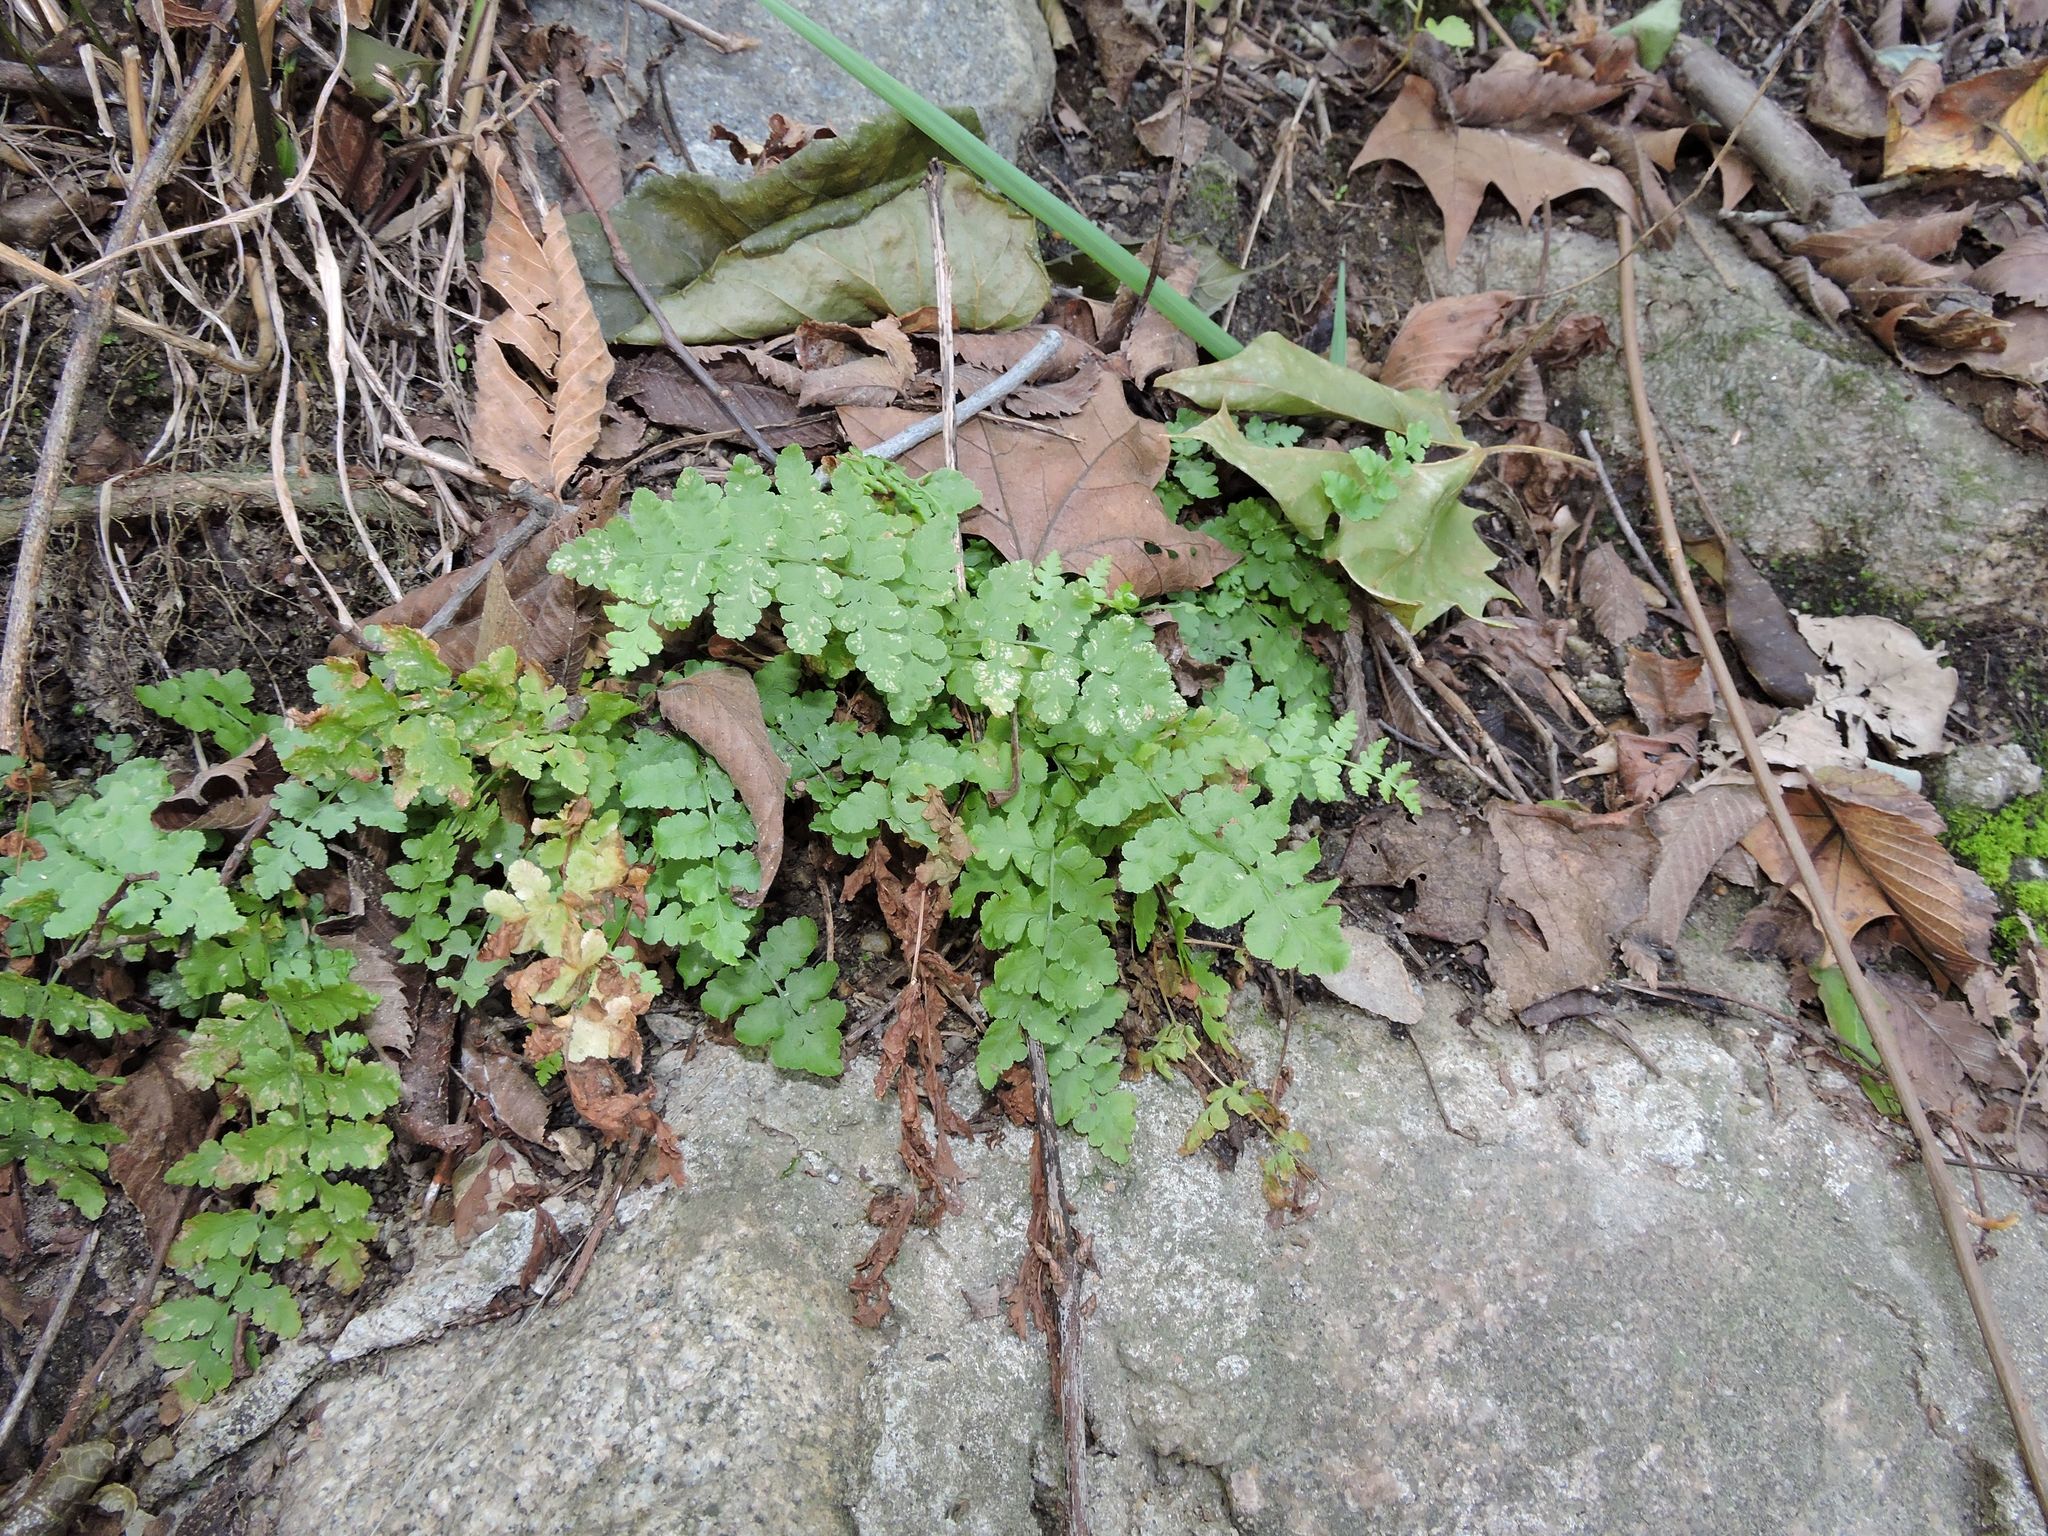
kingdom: Plantae
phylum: Tracheophyta
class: Polypodiopsida
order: Polypodiales
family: Woodsiaceae
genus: Physematium
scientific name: Physematium obtusum
